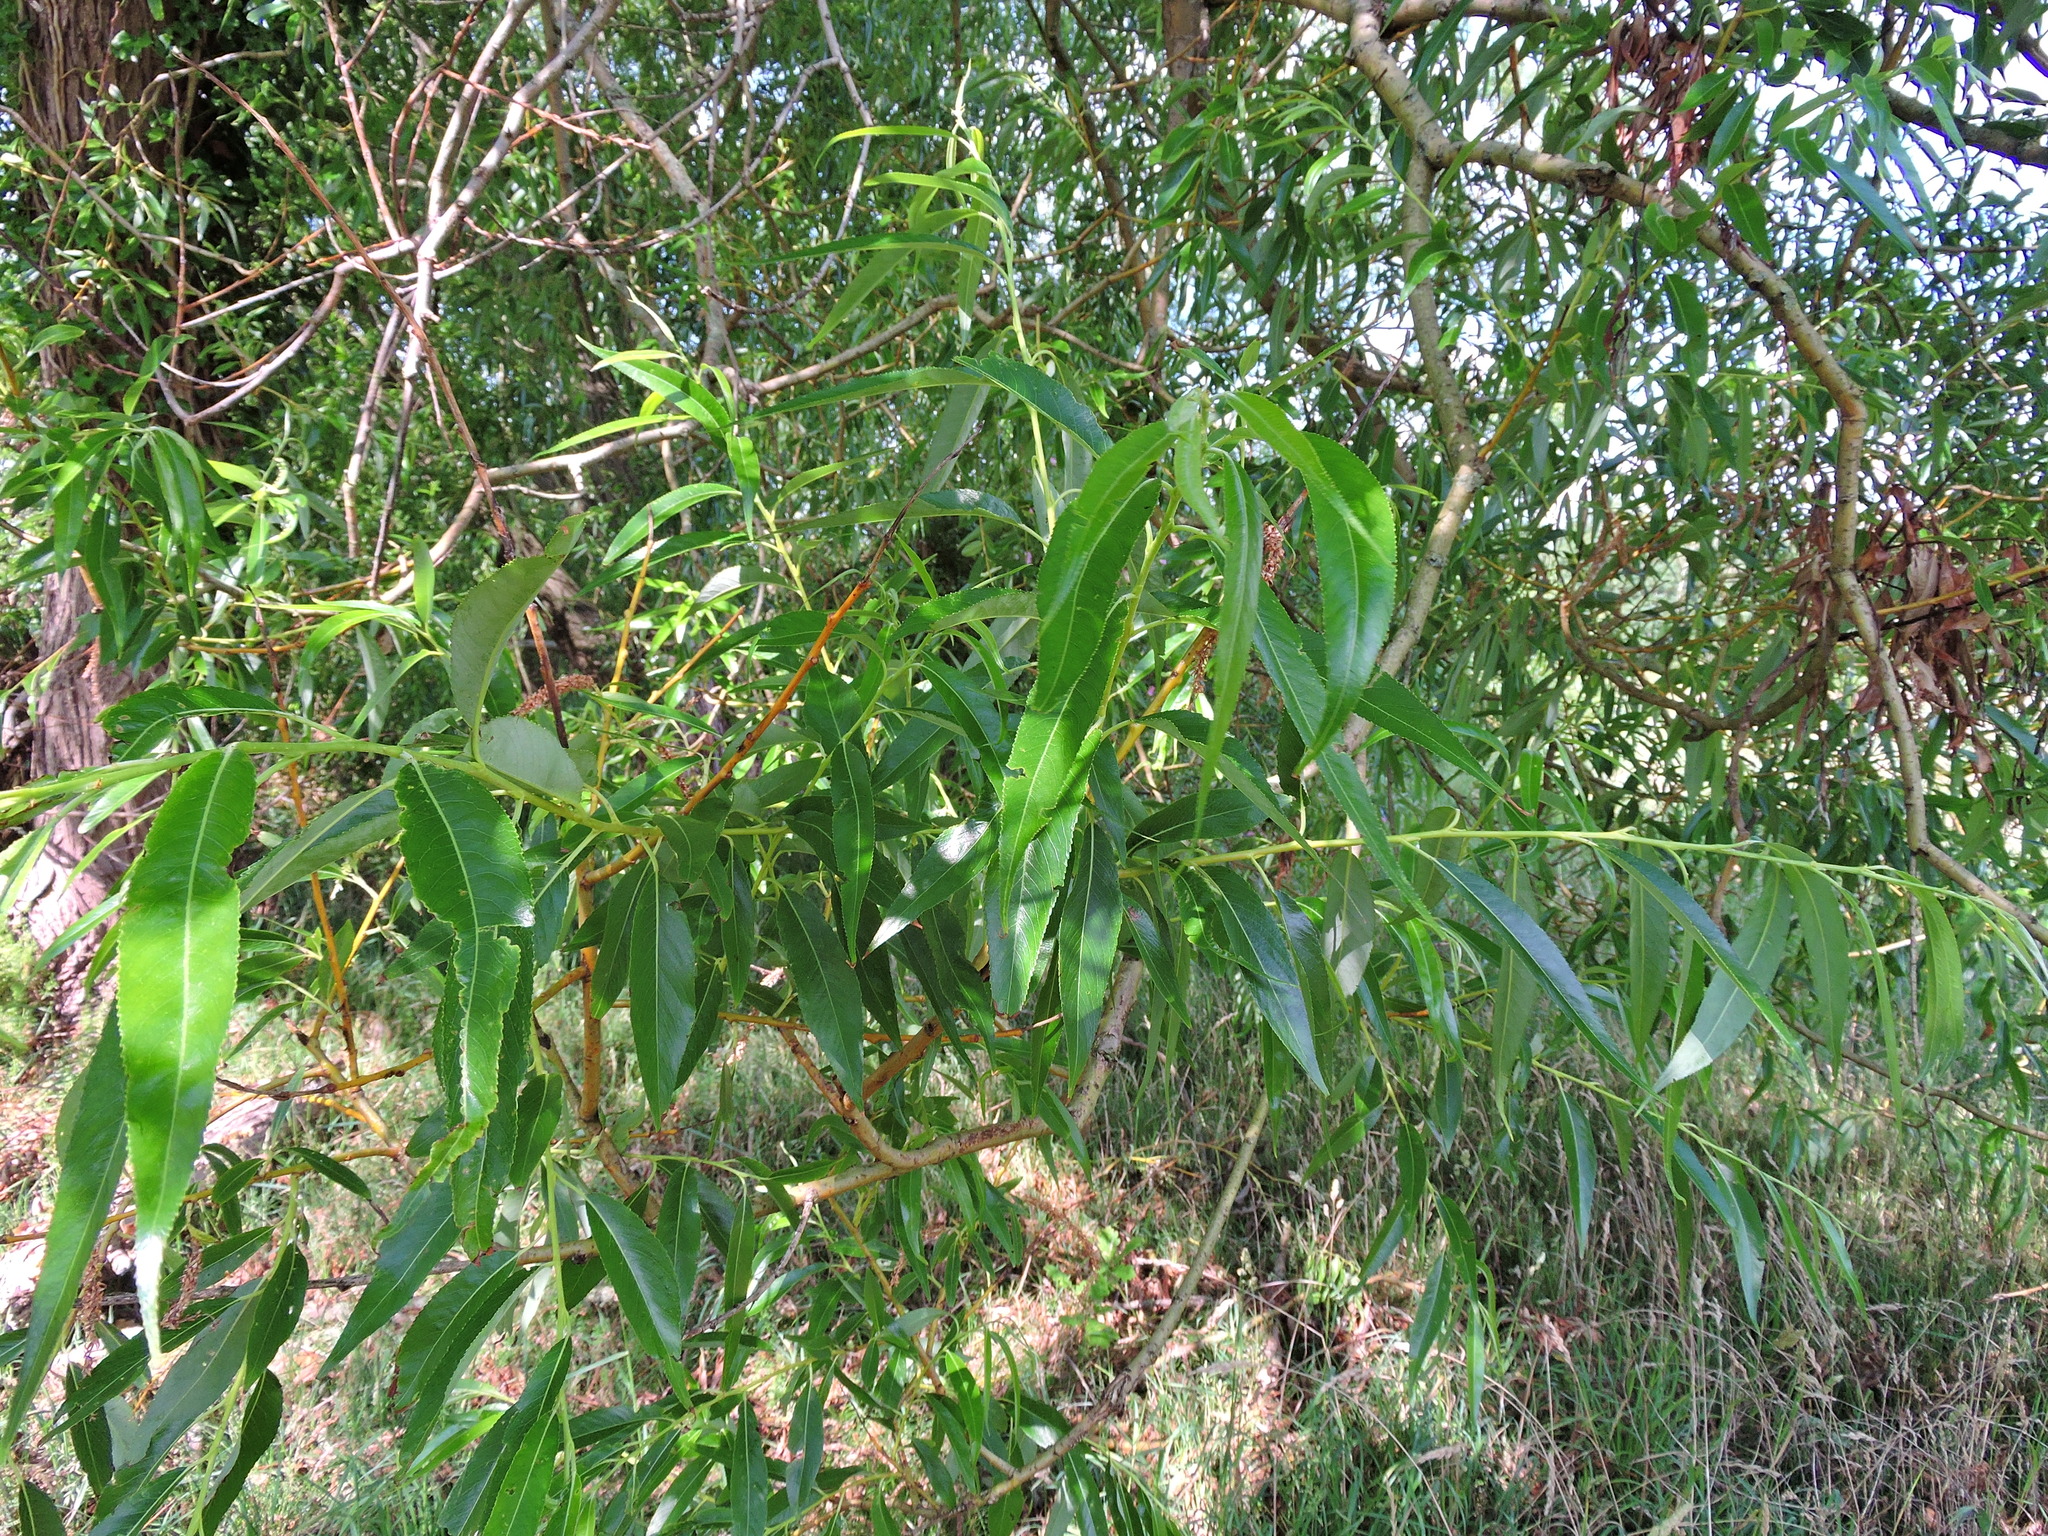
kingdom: Plantae
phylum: Tracheophyta
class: Magnoliopsida
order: Malpighiales
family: Salicaceae
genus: Salix
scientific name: Salix fragilis
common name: Crack willow
